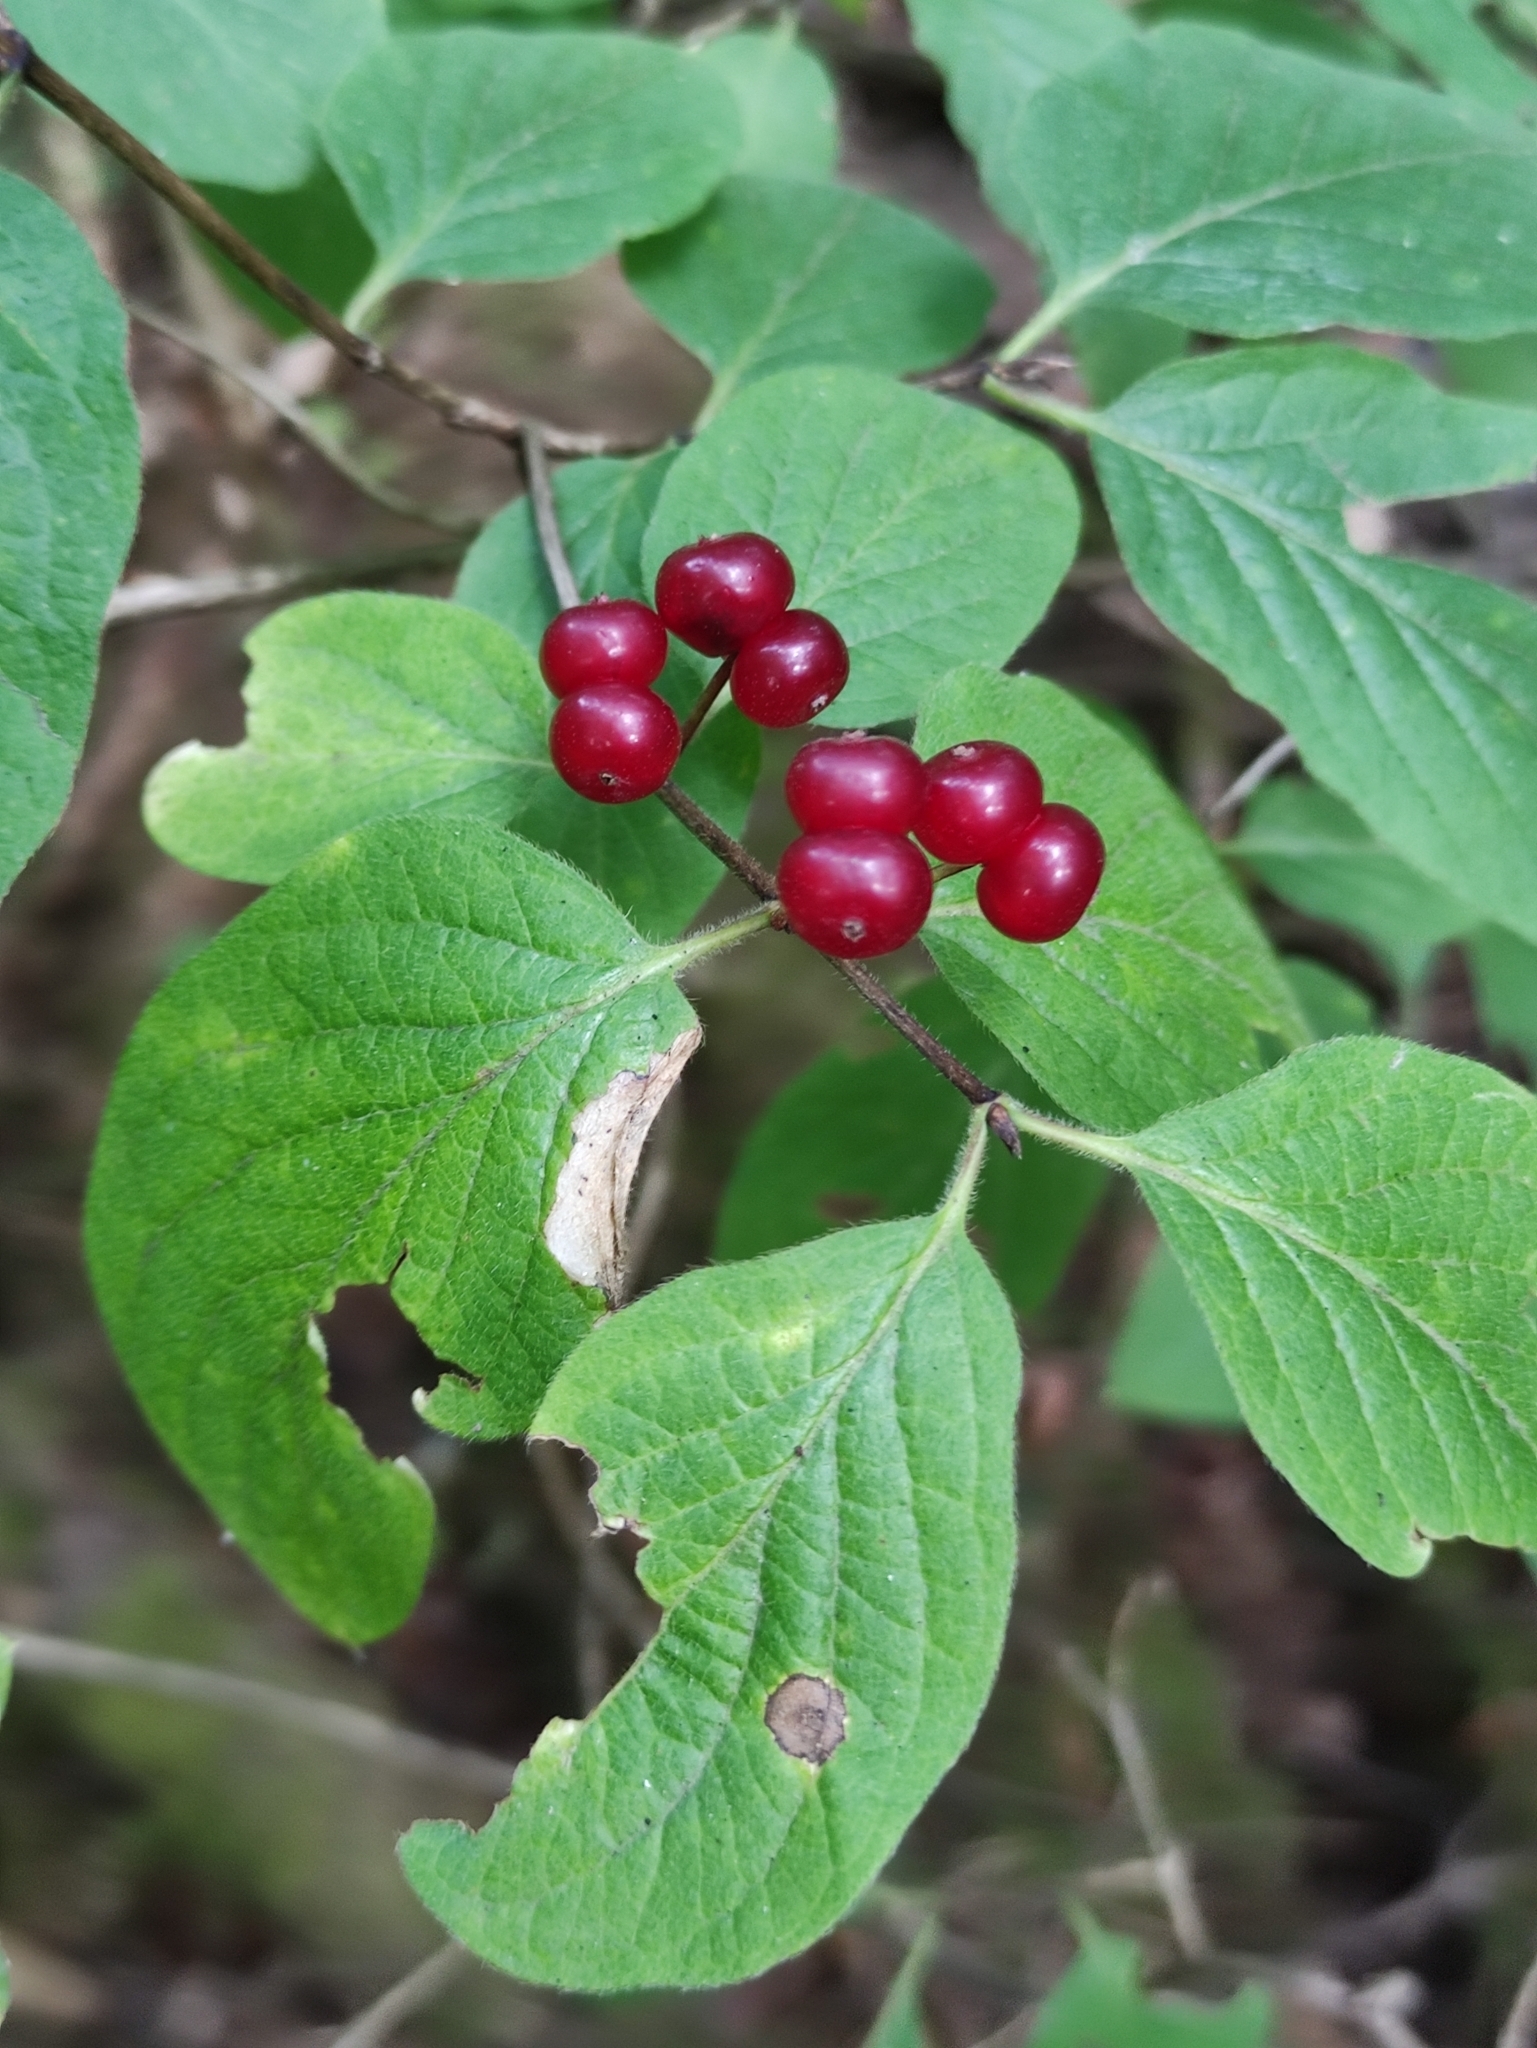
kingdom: Plantae
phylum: Tracheophyta
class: Magnoliopsida
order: Dipsacales
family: Caprifoliaceae
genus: Lonicera
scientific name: Lonicera xylosteum
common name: Fly honeysuckle
